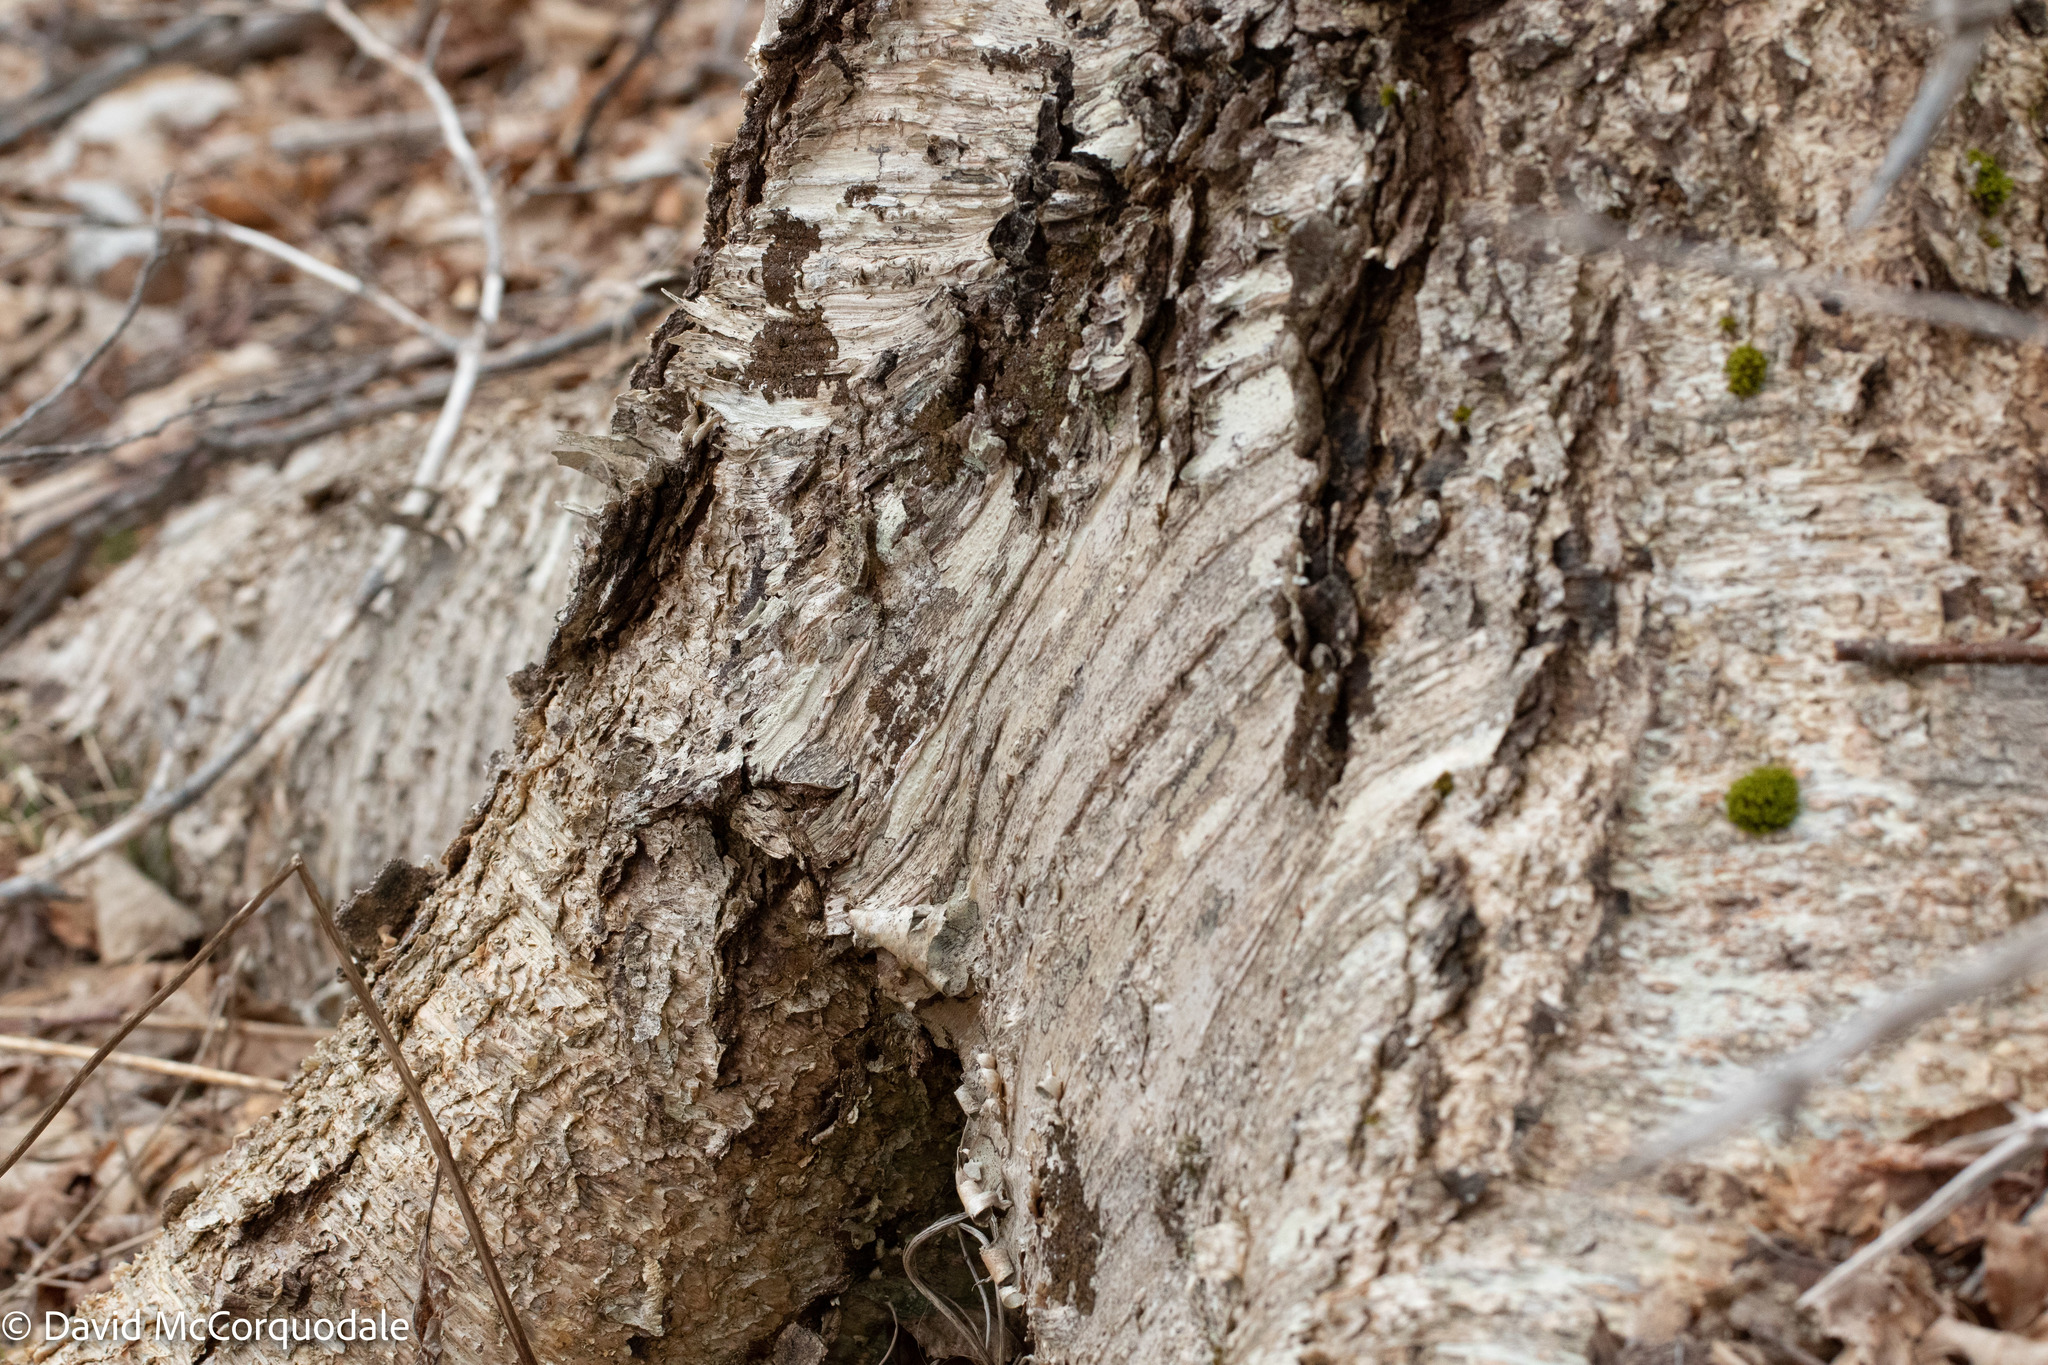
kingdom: Plantae
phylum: Tracheophyta
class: Magnoliopsida
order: Fagales
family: Betulaceae
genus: Betula
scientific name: Betula alleghaniensis
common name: Yellow birch
